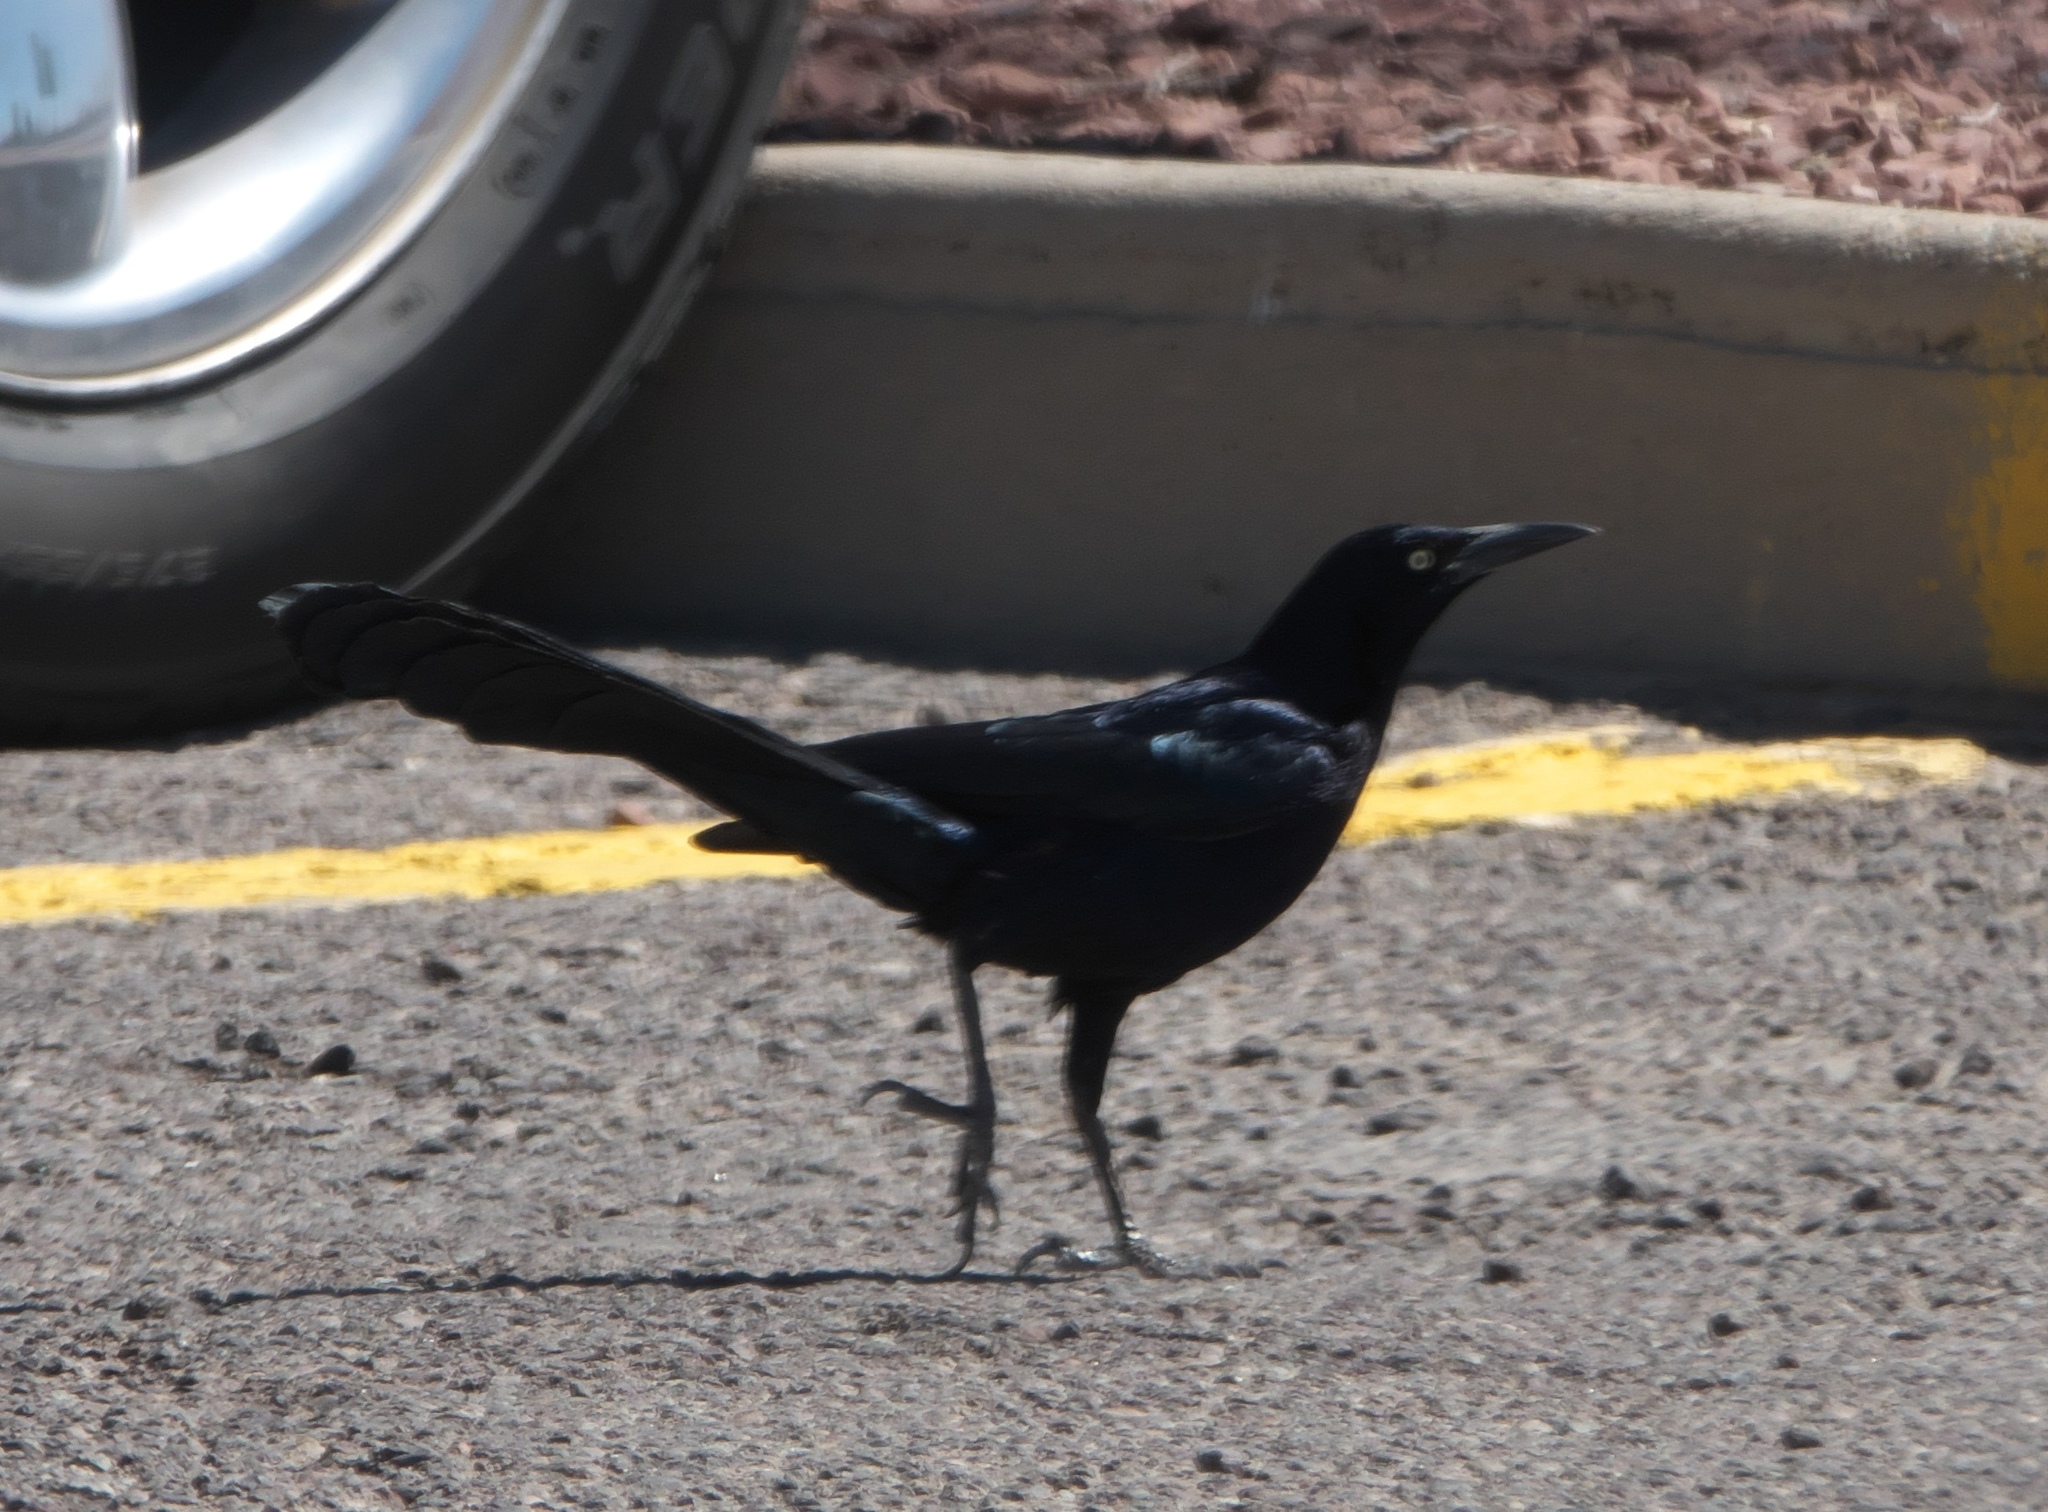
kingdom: Animalia
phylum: Chordata
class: Aves
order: Passeriformes
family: Icteridae
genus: Quiscalus
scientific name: Quiscalus mexicanus
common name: Great-tailed grackle
